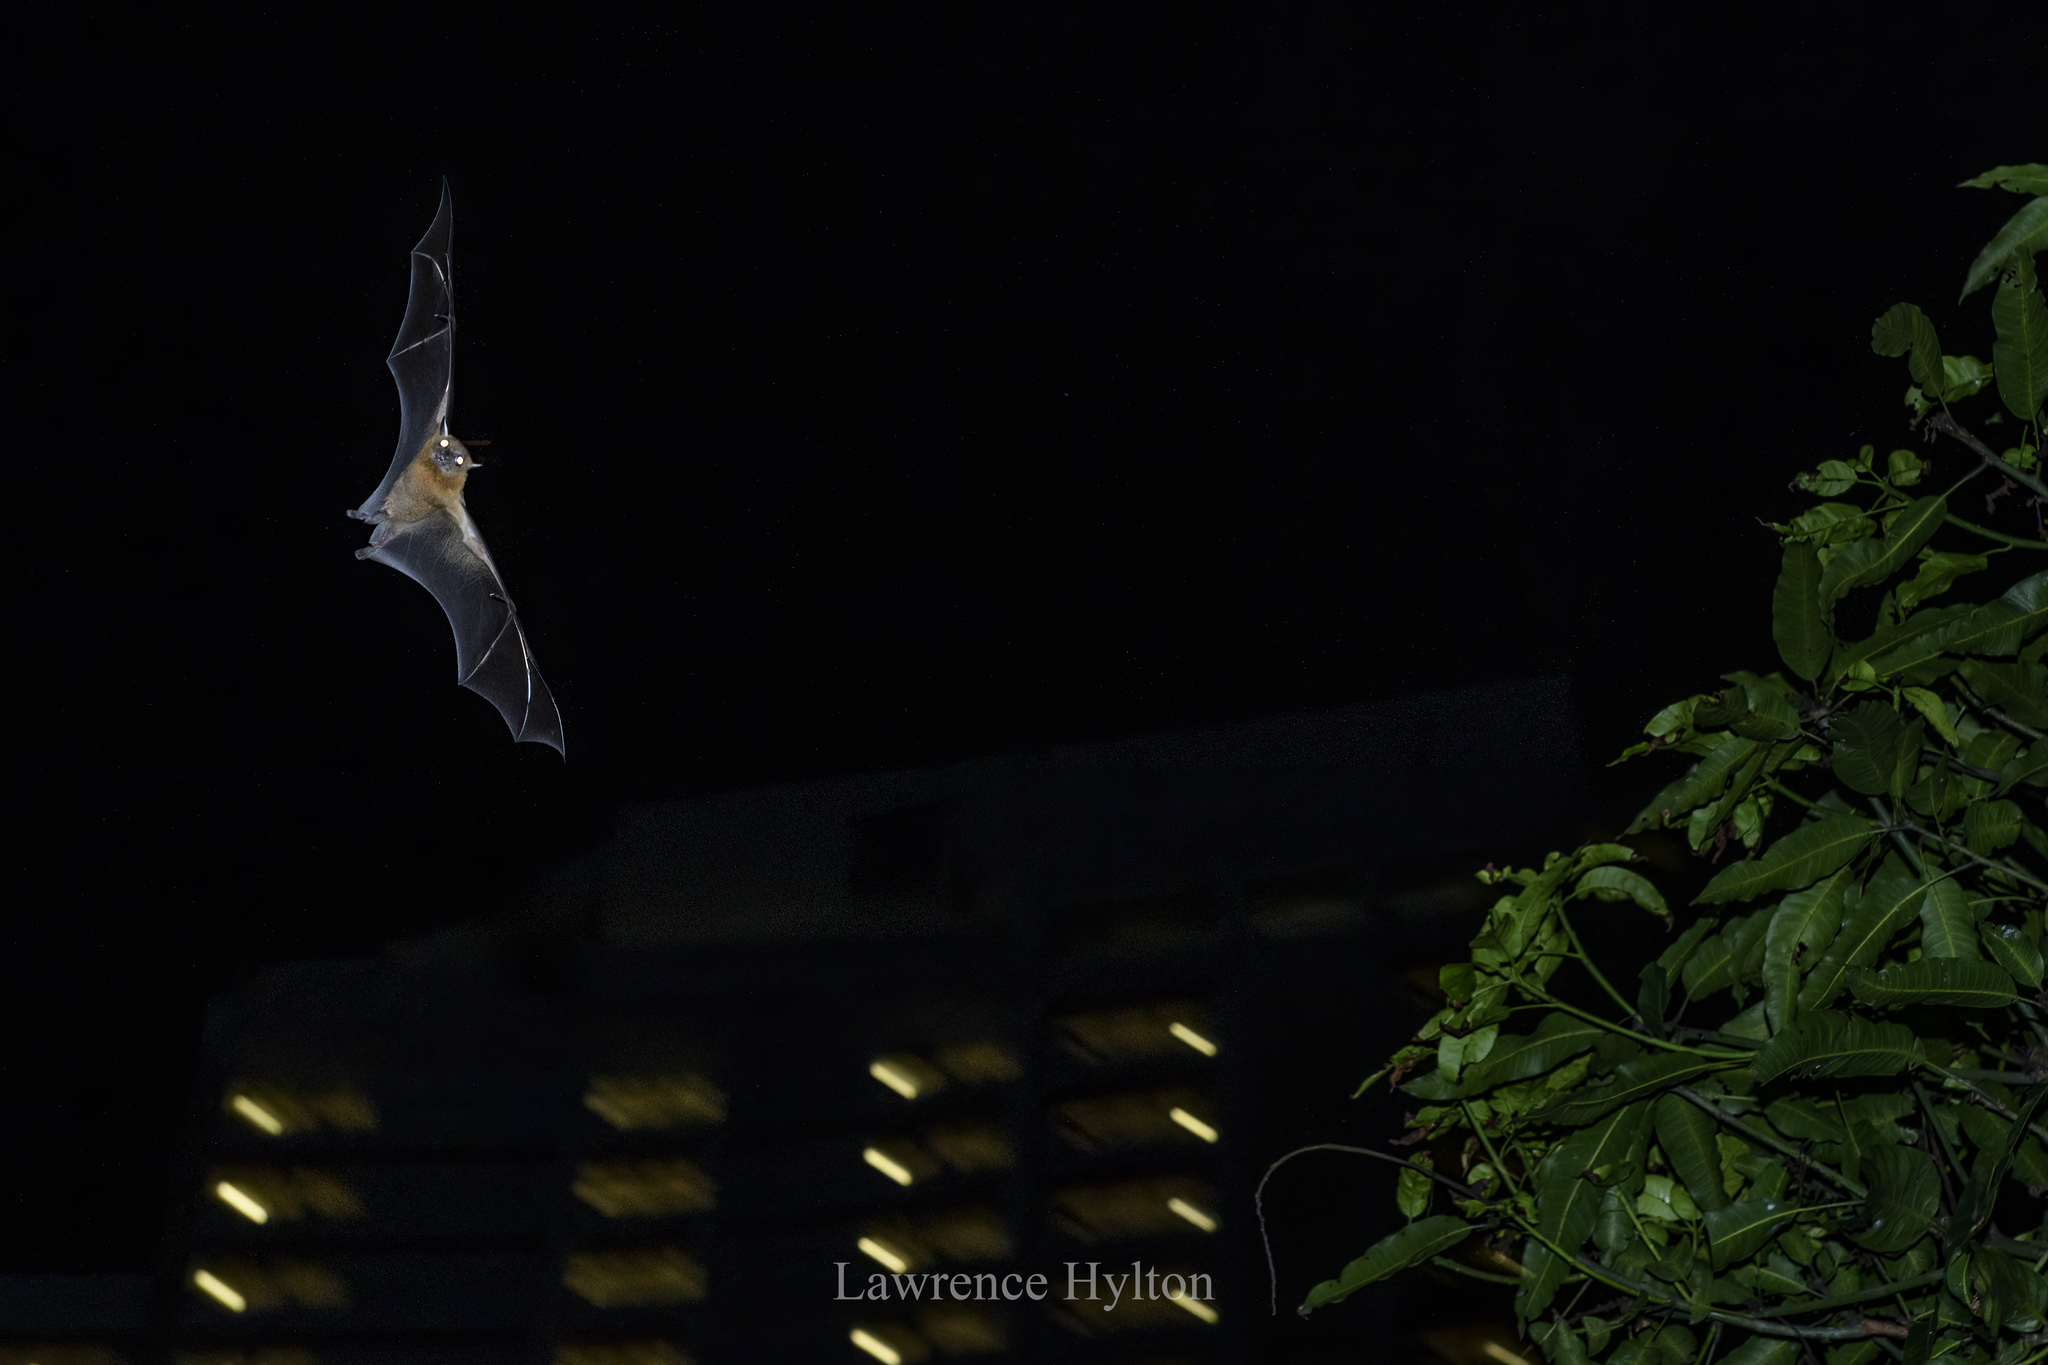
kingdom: Animalia
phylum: Chordata
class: Mammalia
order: Chiroptera
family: Pteropodidae
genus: Cynopterus
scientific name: Cynopterus sphinx
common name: Greater short-nosed fruit bat
